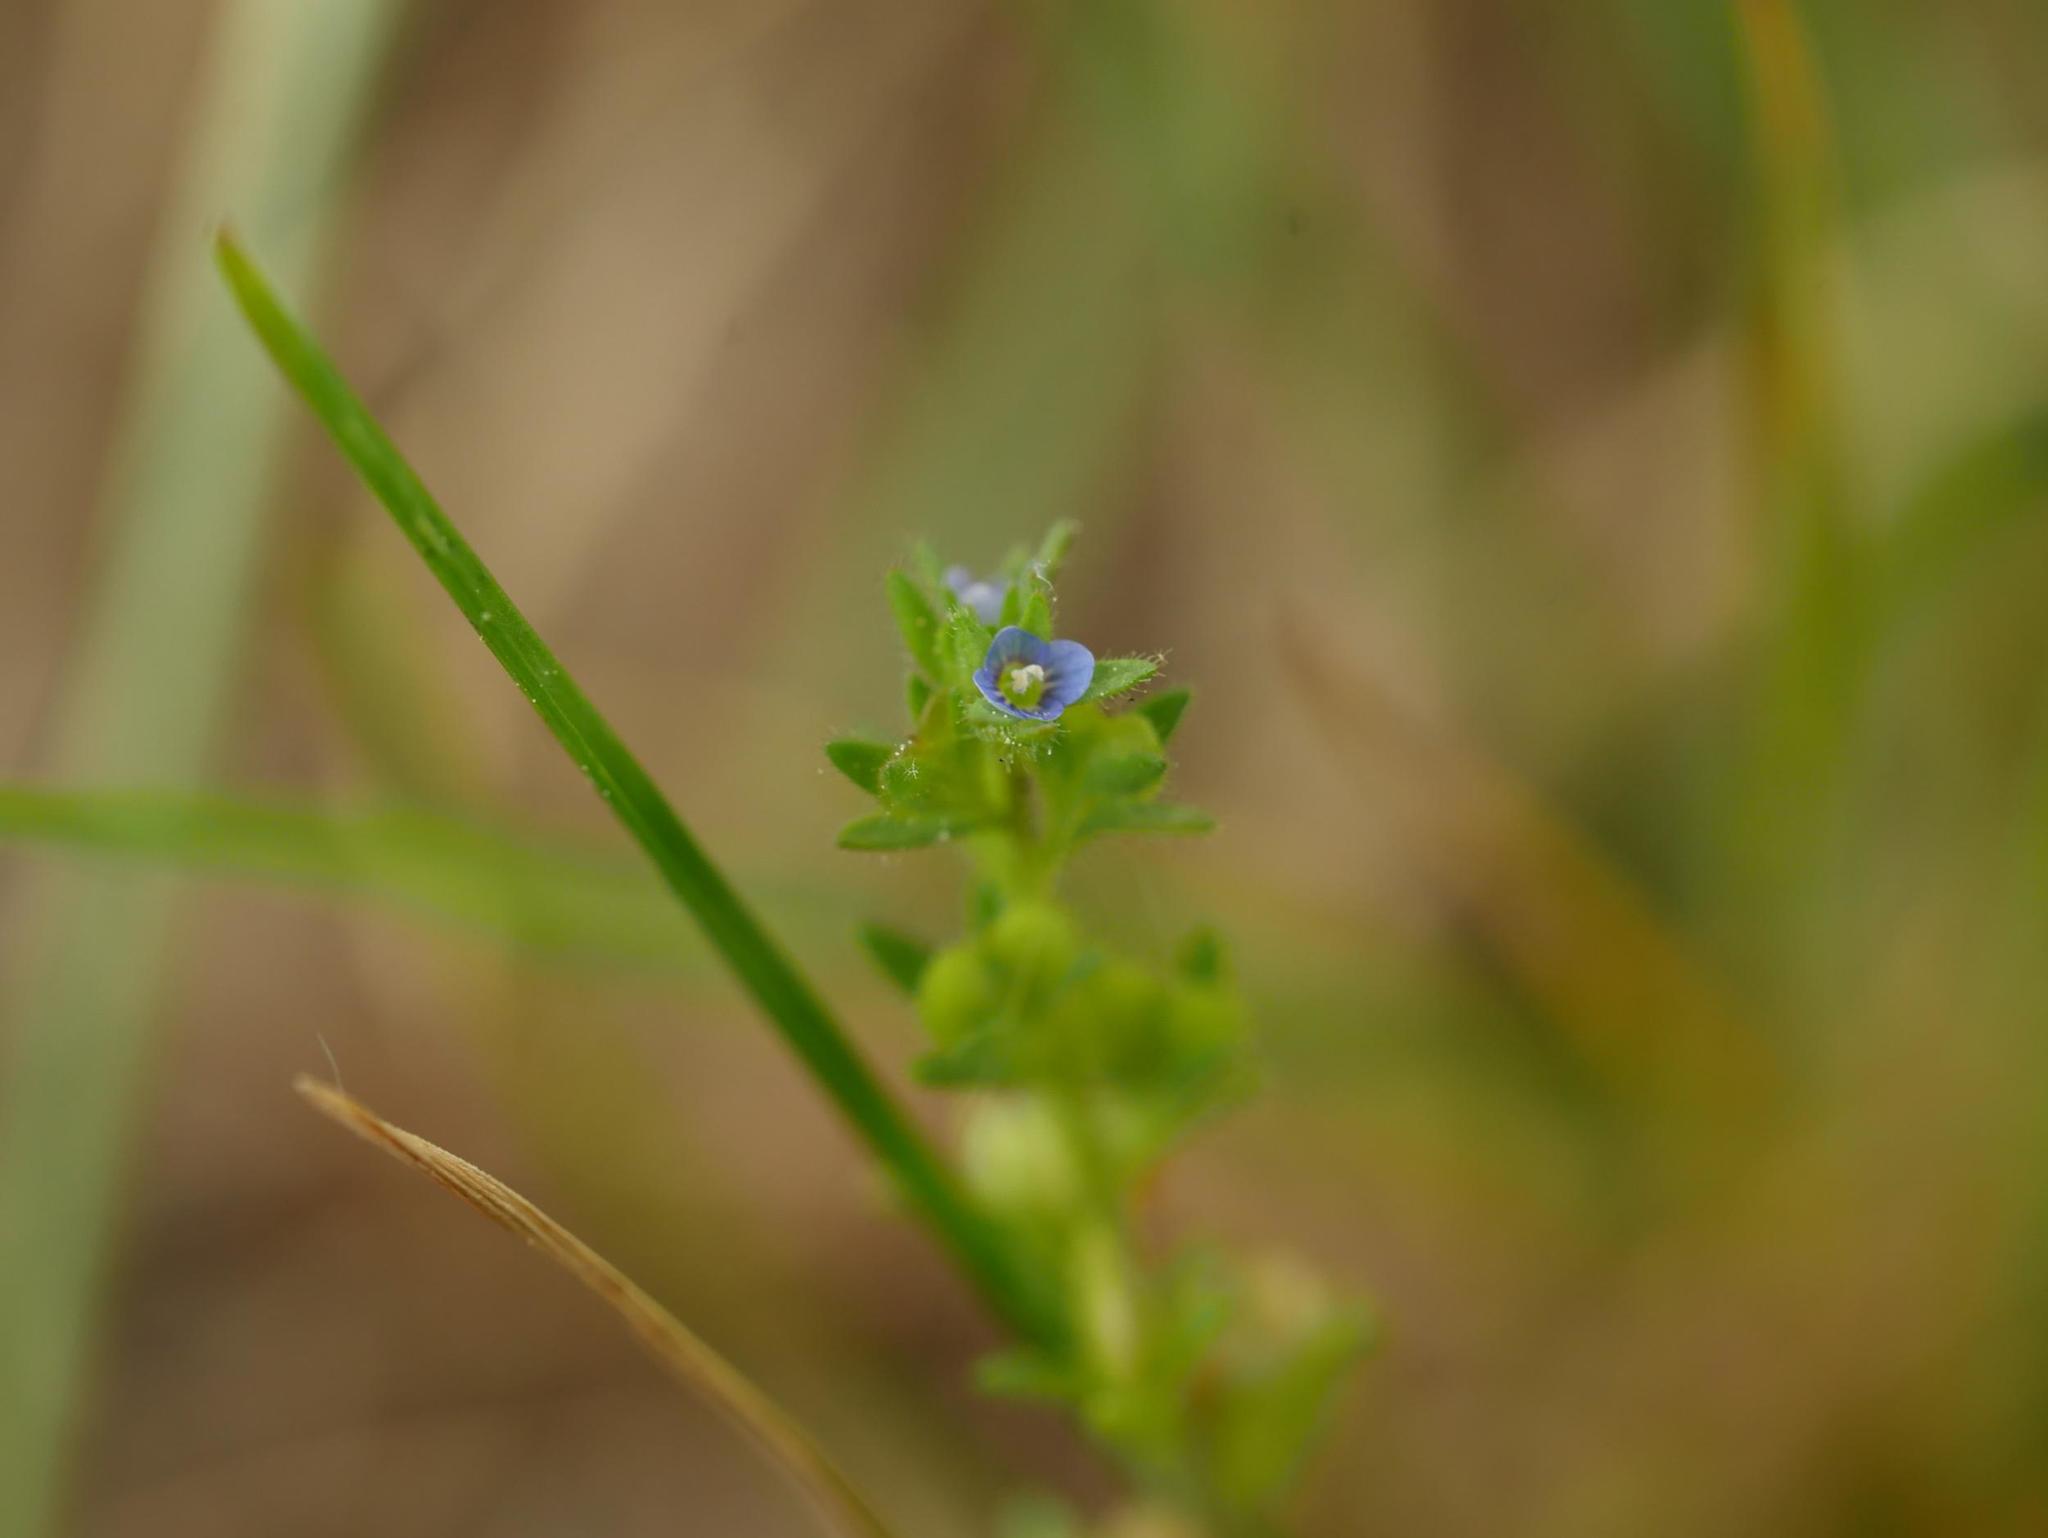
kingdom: Plantae
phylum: Tracheophyta
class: Magnoliopsida
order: Lamiales
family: Plantaginaceae
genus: Veronica
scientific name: Veronica arvensis
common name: Corn speedwell
